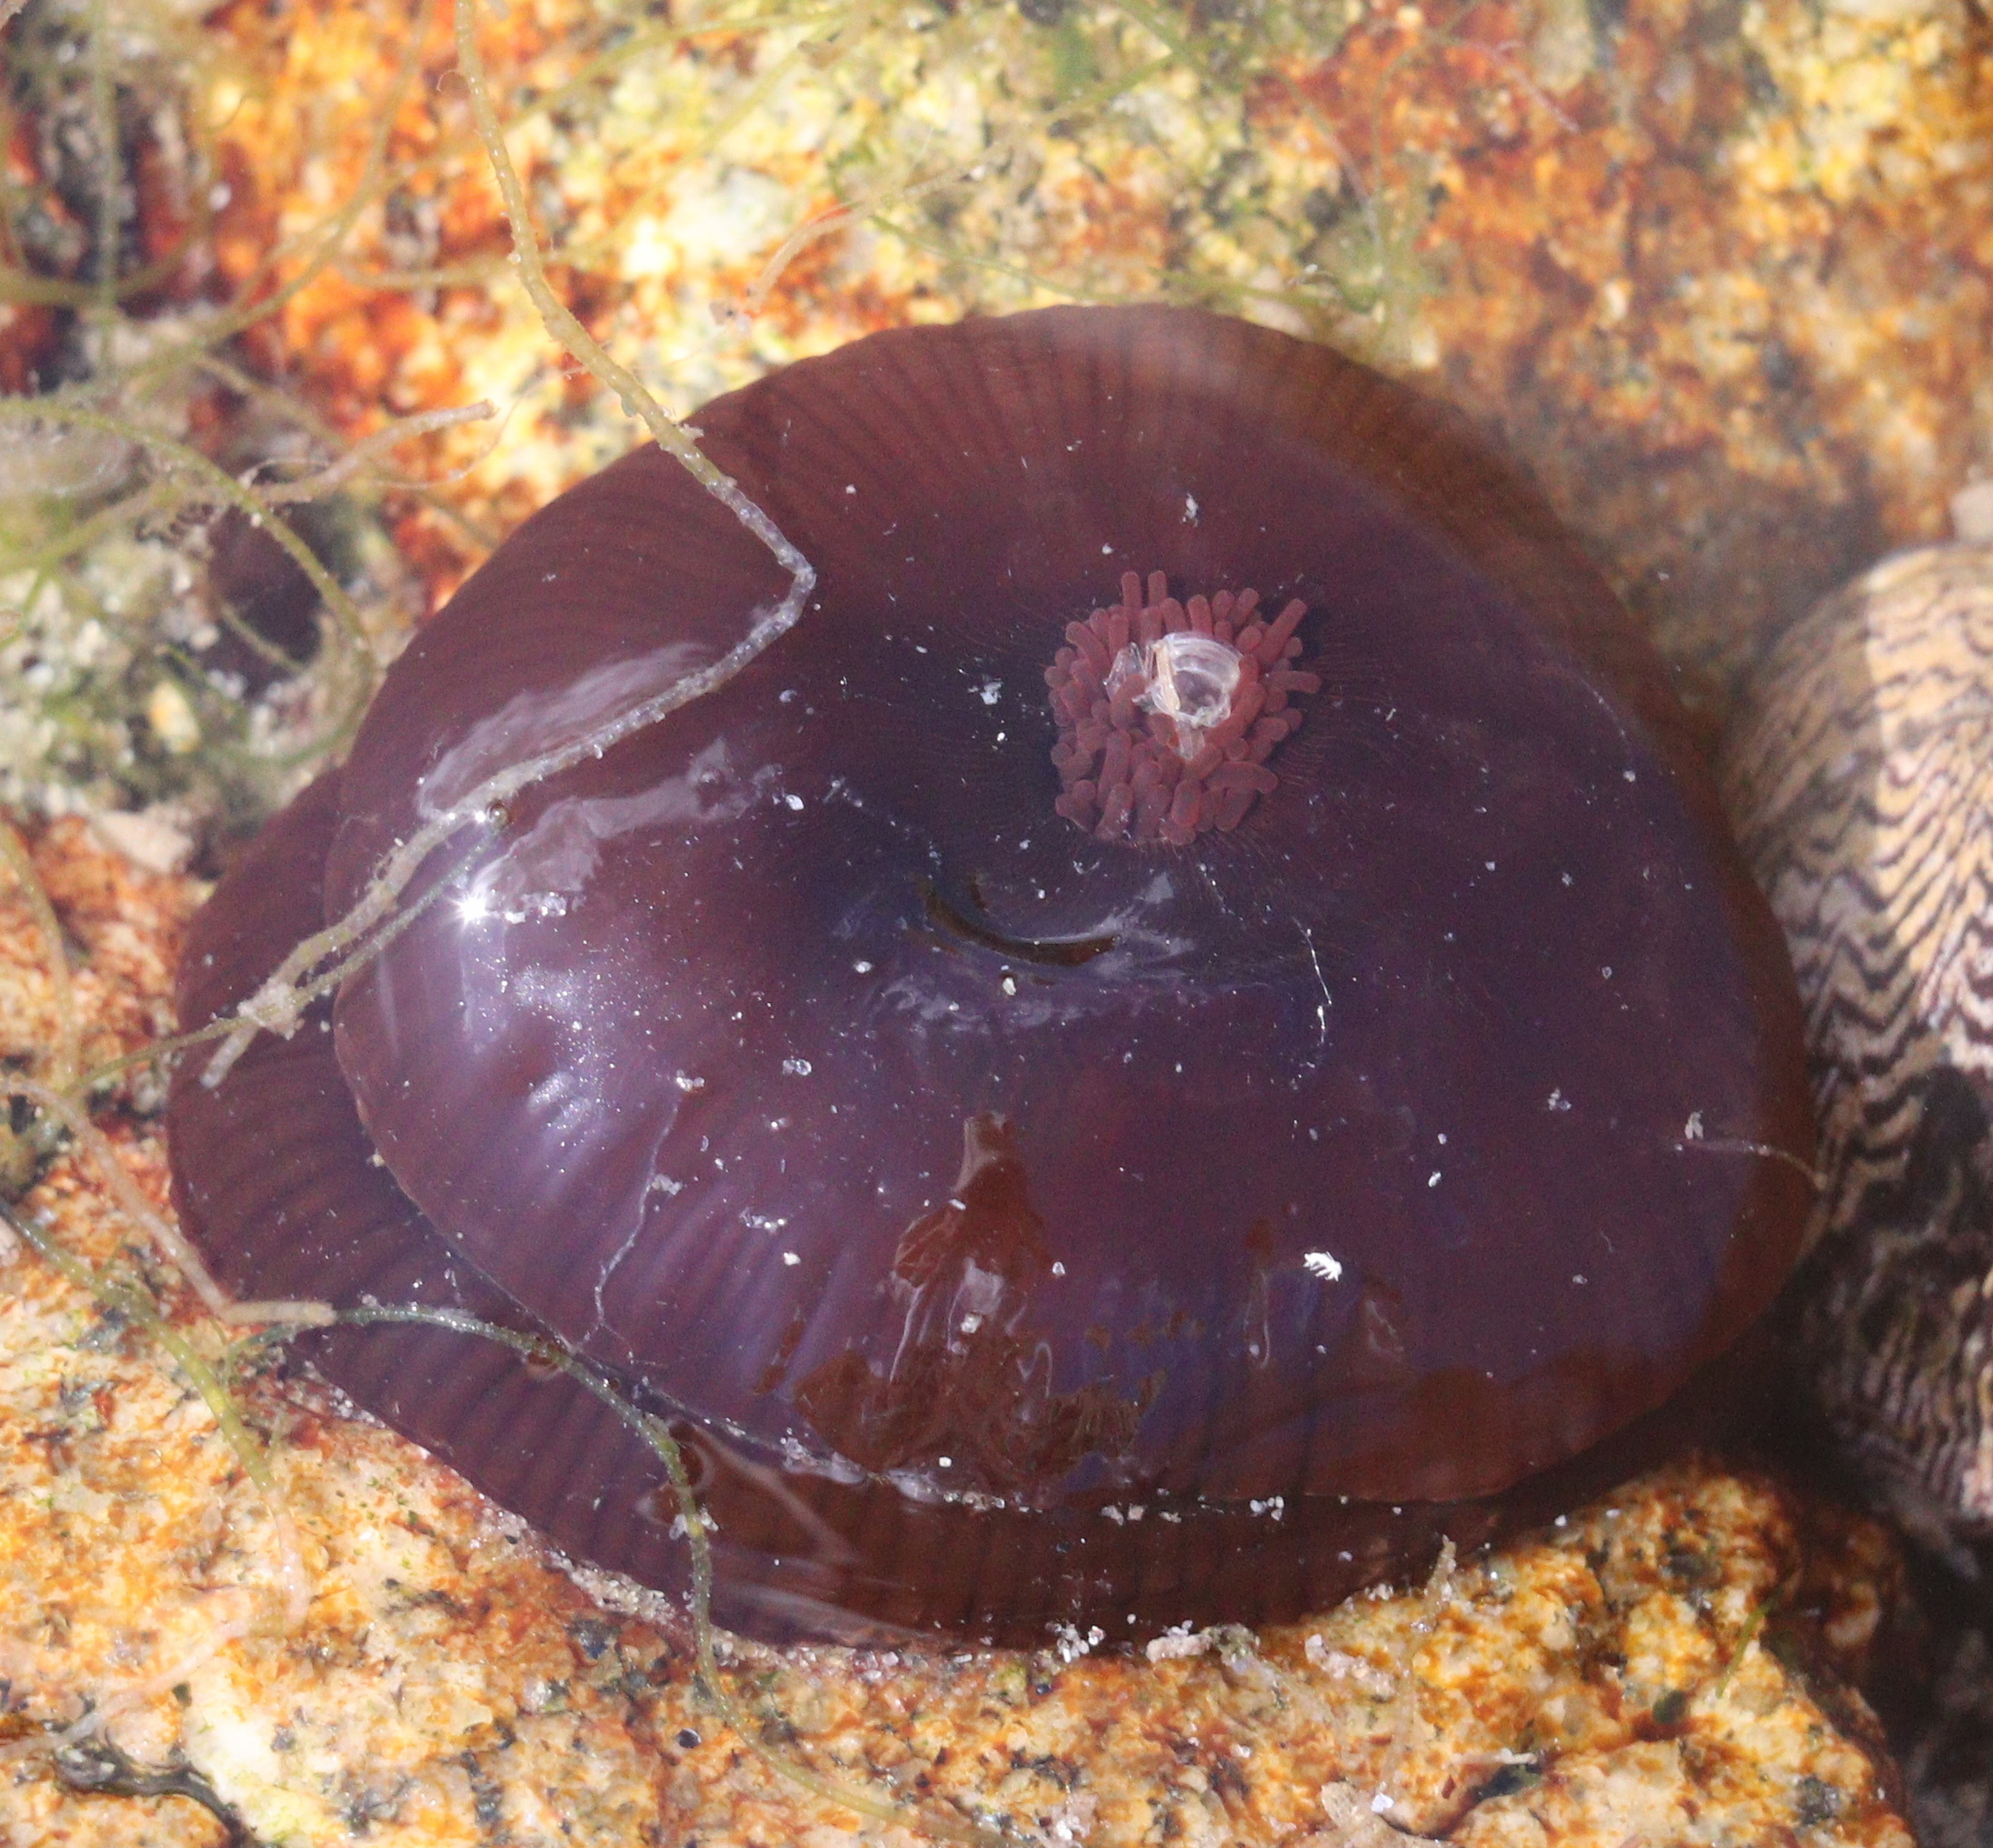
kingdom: Animalia
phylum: Cnidaria
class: Anthozoa
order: Actiniaria
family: Actiniidae
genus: Actinia
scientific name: Actinia equina
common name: Beadlet anemone
